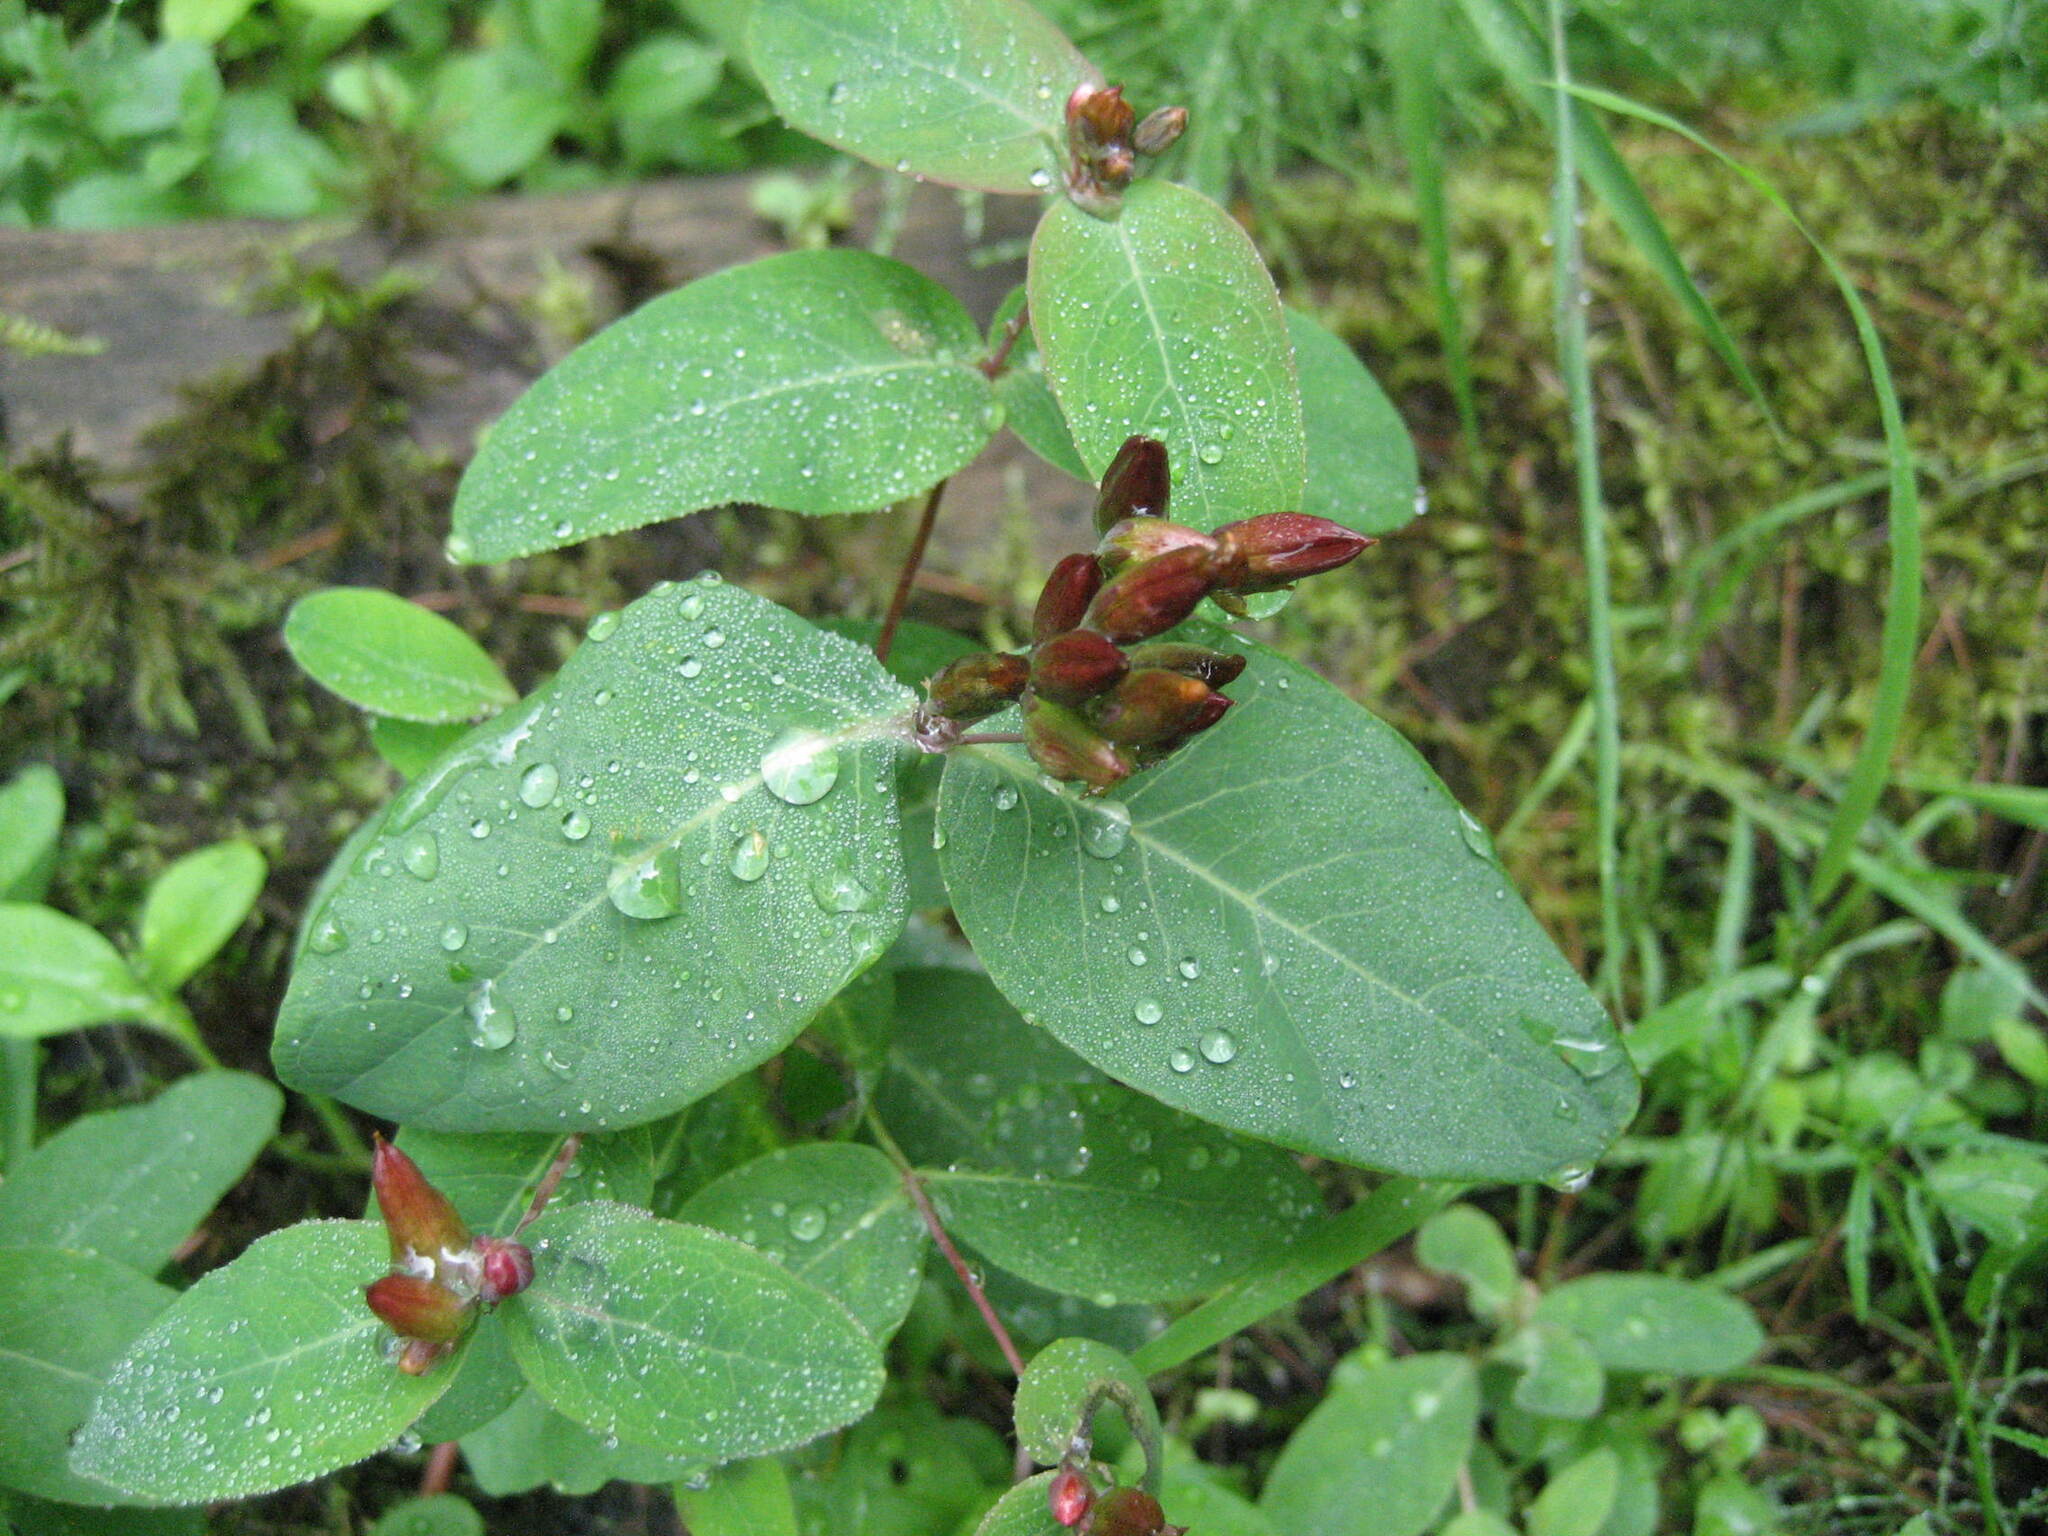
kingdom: Plantae
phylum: Tracheophyta
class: Magnoliopsida
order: Malpighiales
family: Hypericaceae
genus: Triadenum
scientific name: Triadenum fraseri
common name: Fraser's marsh st. johnswort
